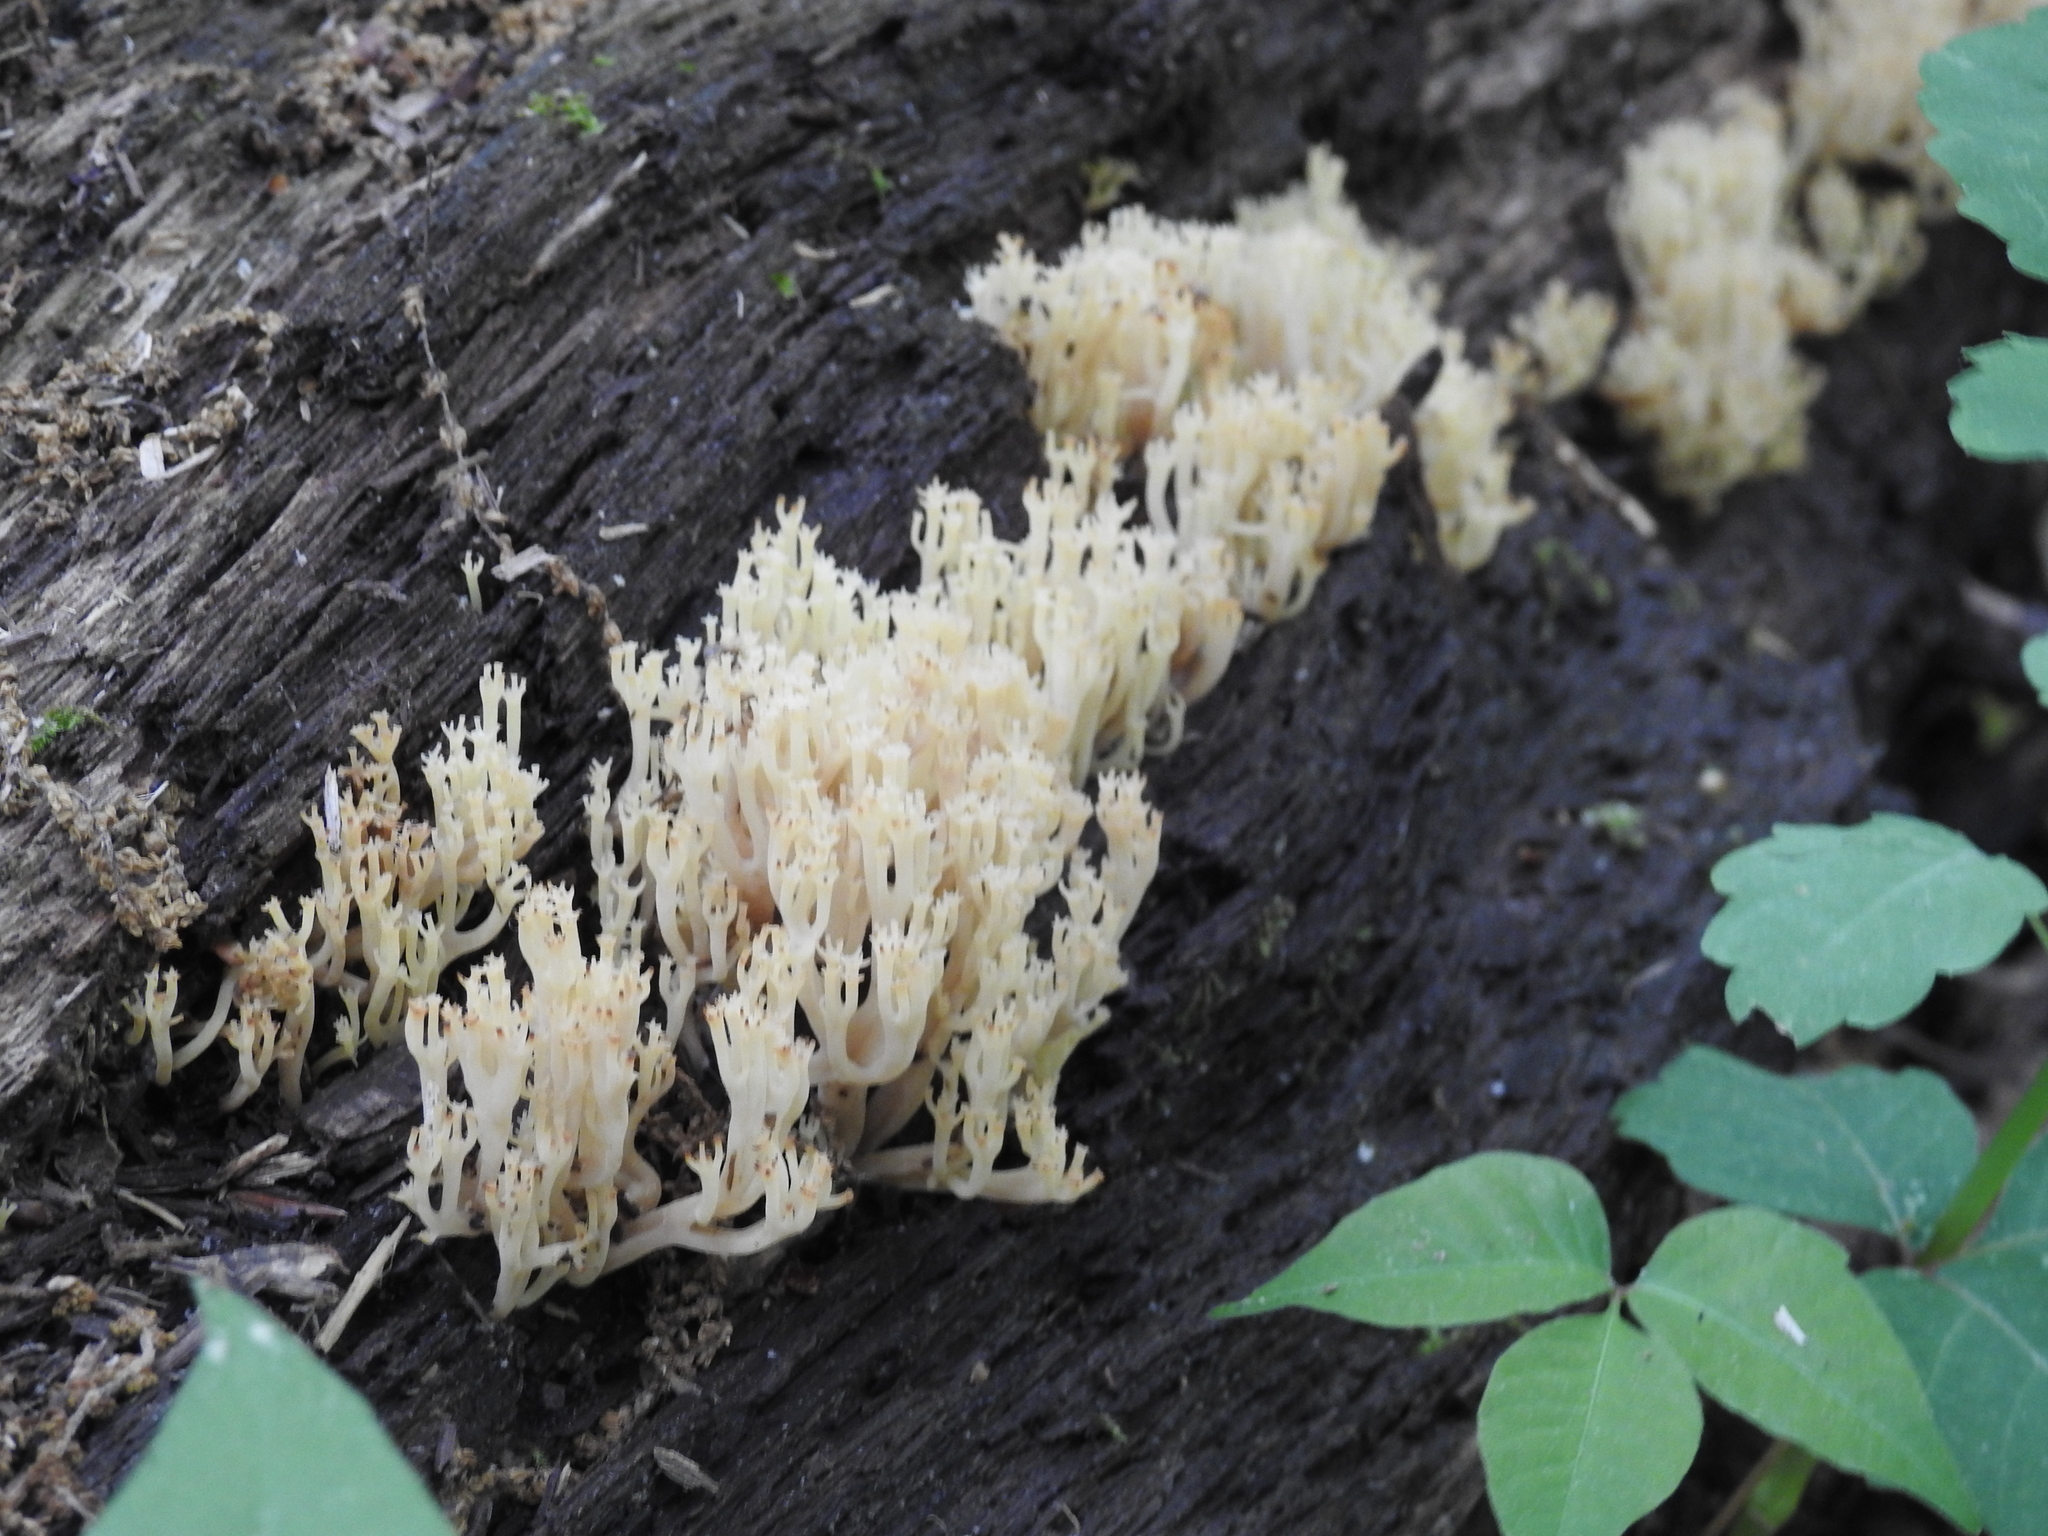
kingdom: Fungi
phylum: Basidiomycota
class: Agaricomycetes
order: Russulales
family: Auriscalpiaceae
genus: Artomyces
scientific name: Artomyces pyxidatus
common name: Crown-tipped coral fungus
